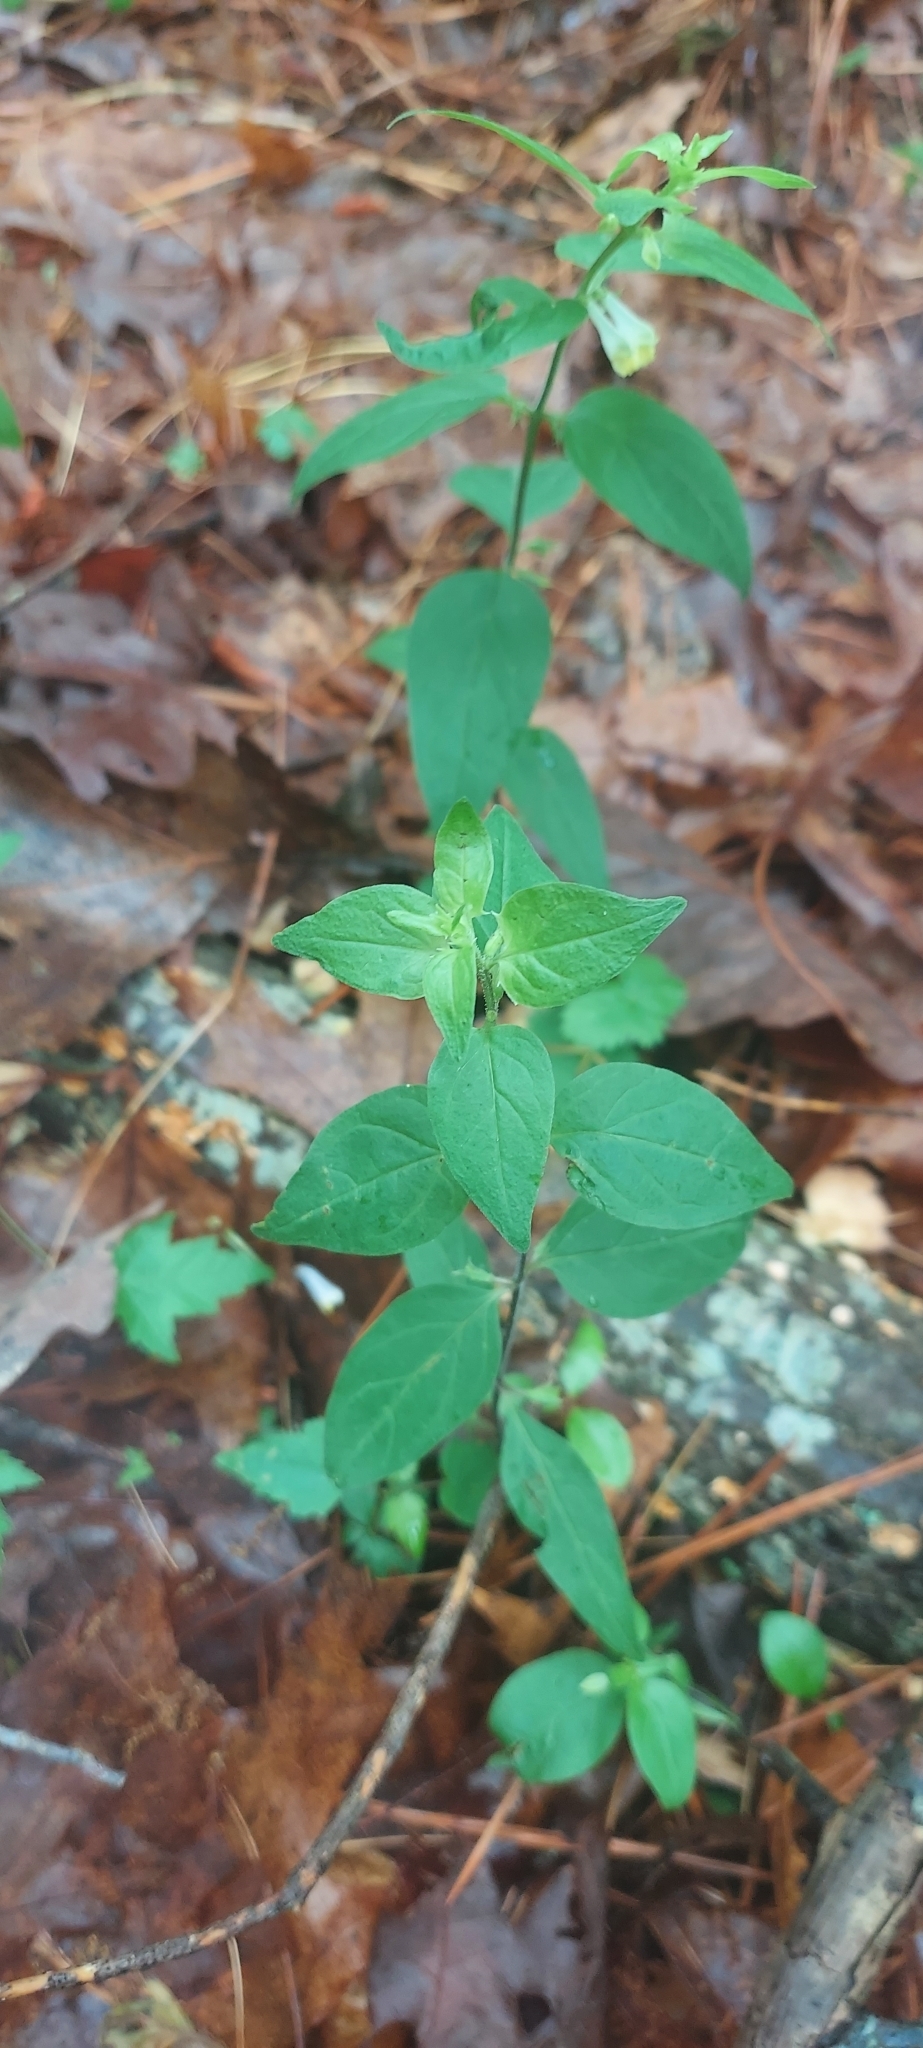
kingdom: Plantae
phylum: Tracheophyta
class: Magnoliopsida
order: Lamiales
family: Orobanchaceae
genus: Melampyrum
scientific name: Melampyrum lineare
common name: American cow-wheat
